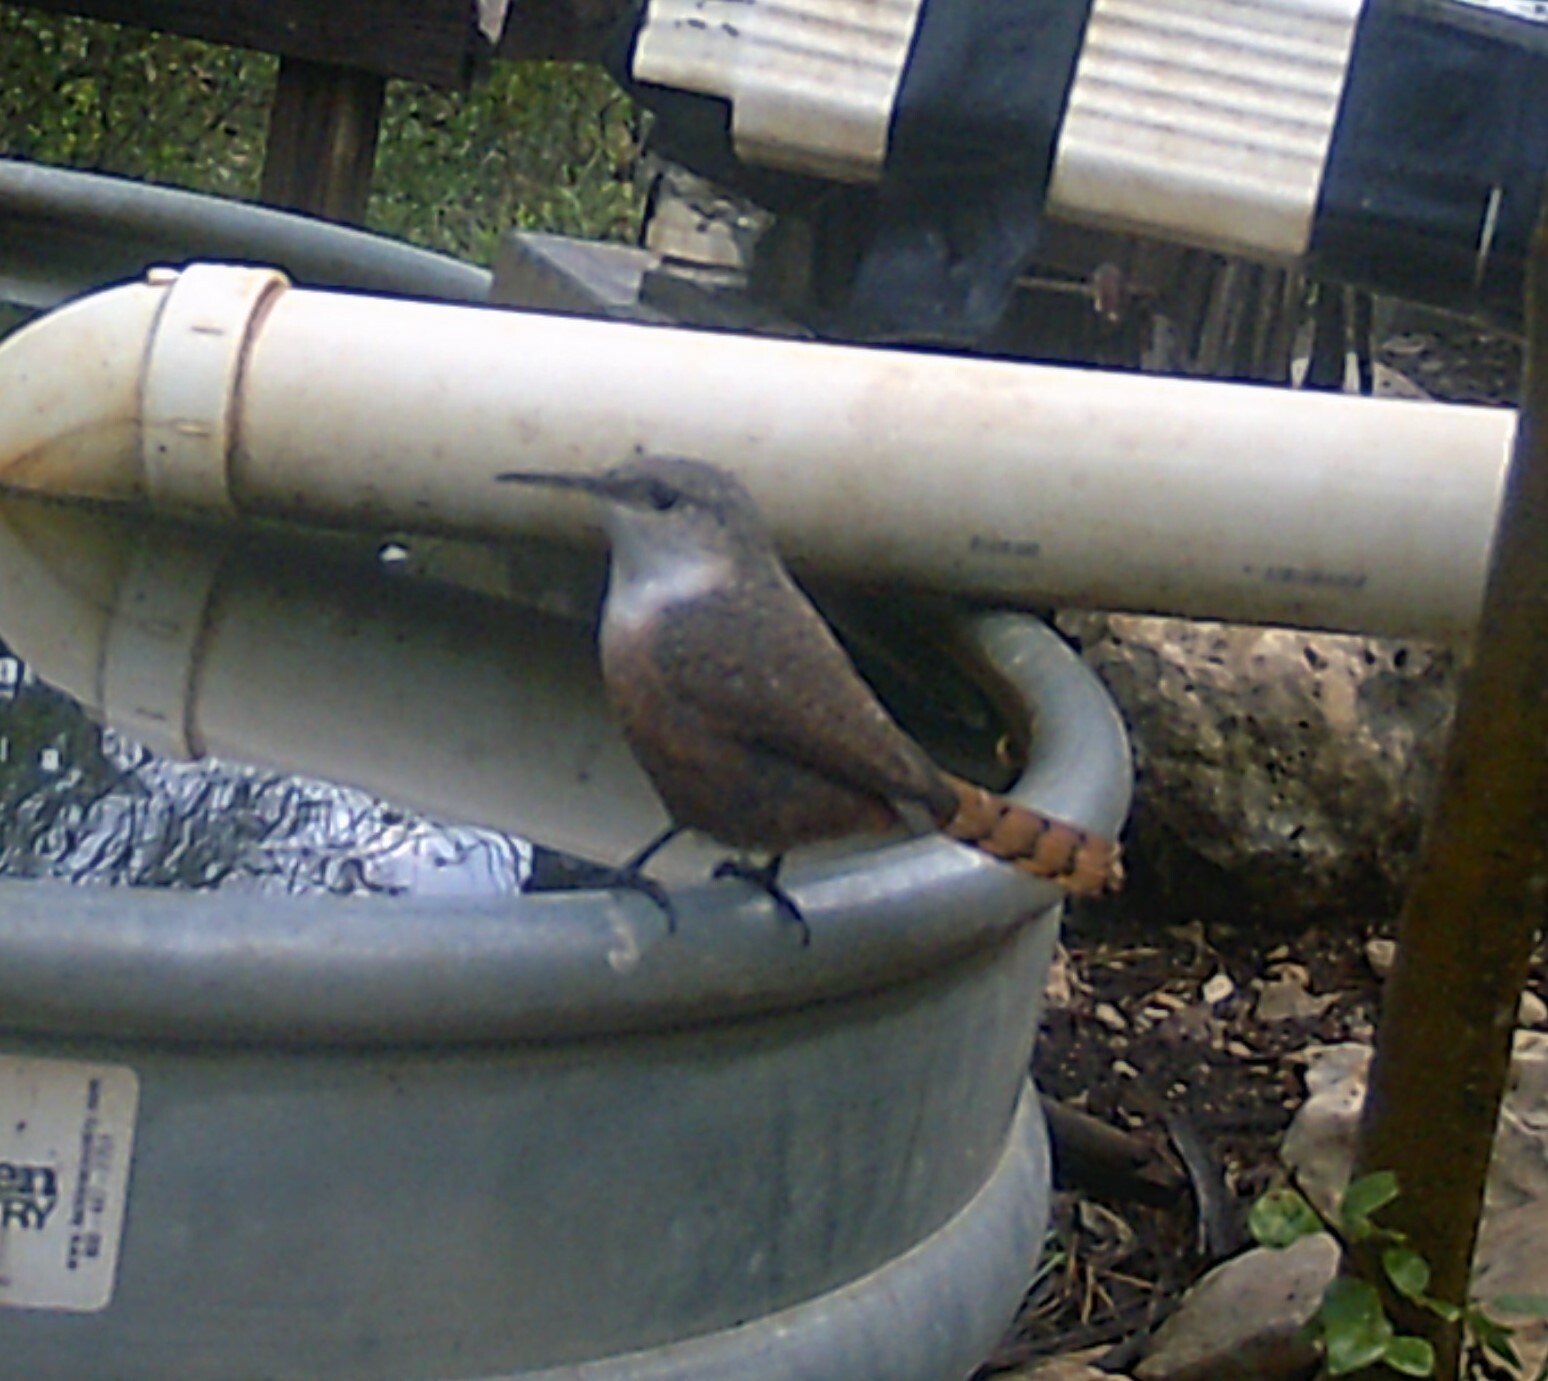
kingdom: Animalia
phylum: Chordata
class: Aves
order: Passeriformes
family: Troglodytidae
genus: Catherpes
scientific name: Catherpes mexicanus
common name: Canyon wren
